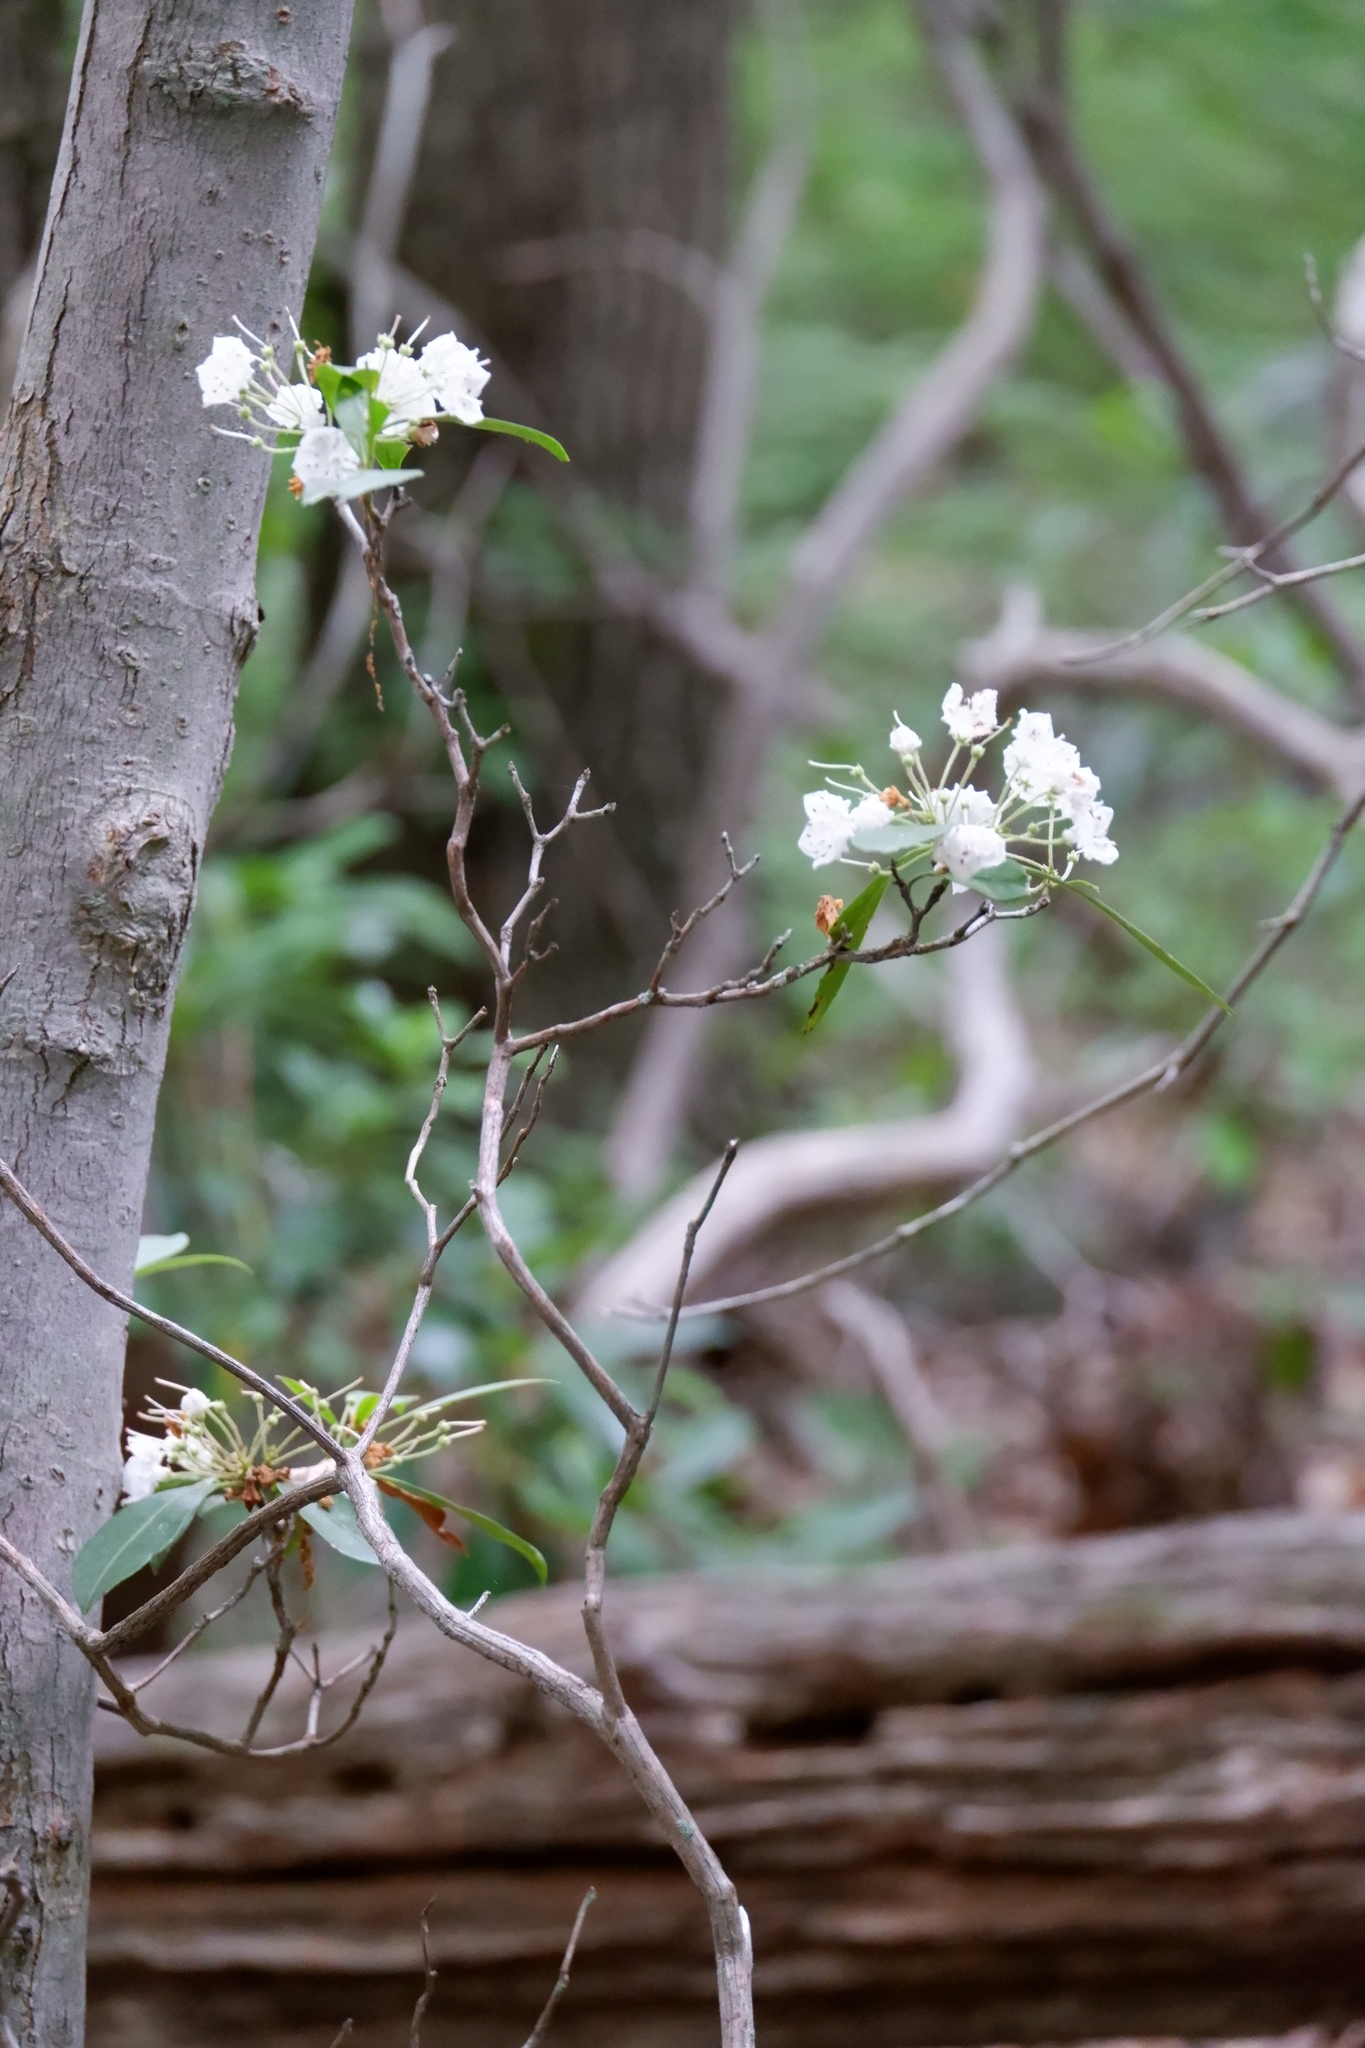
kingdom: Plantae
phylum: Tracheophyta
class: Magnoliopsida
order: Ericales
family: Ericaceae
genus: Kalmia
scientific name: Kalmia latifolia
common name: Mountain-laurel
